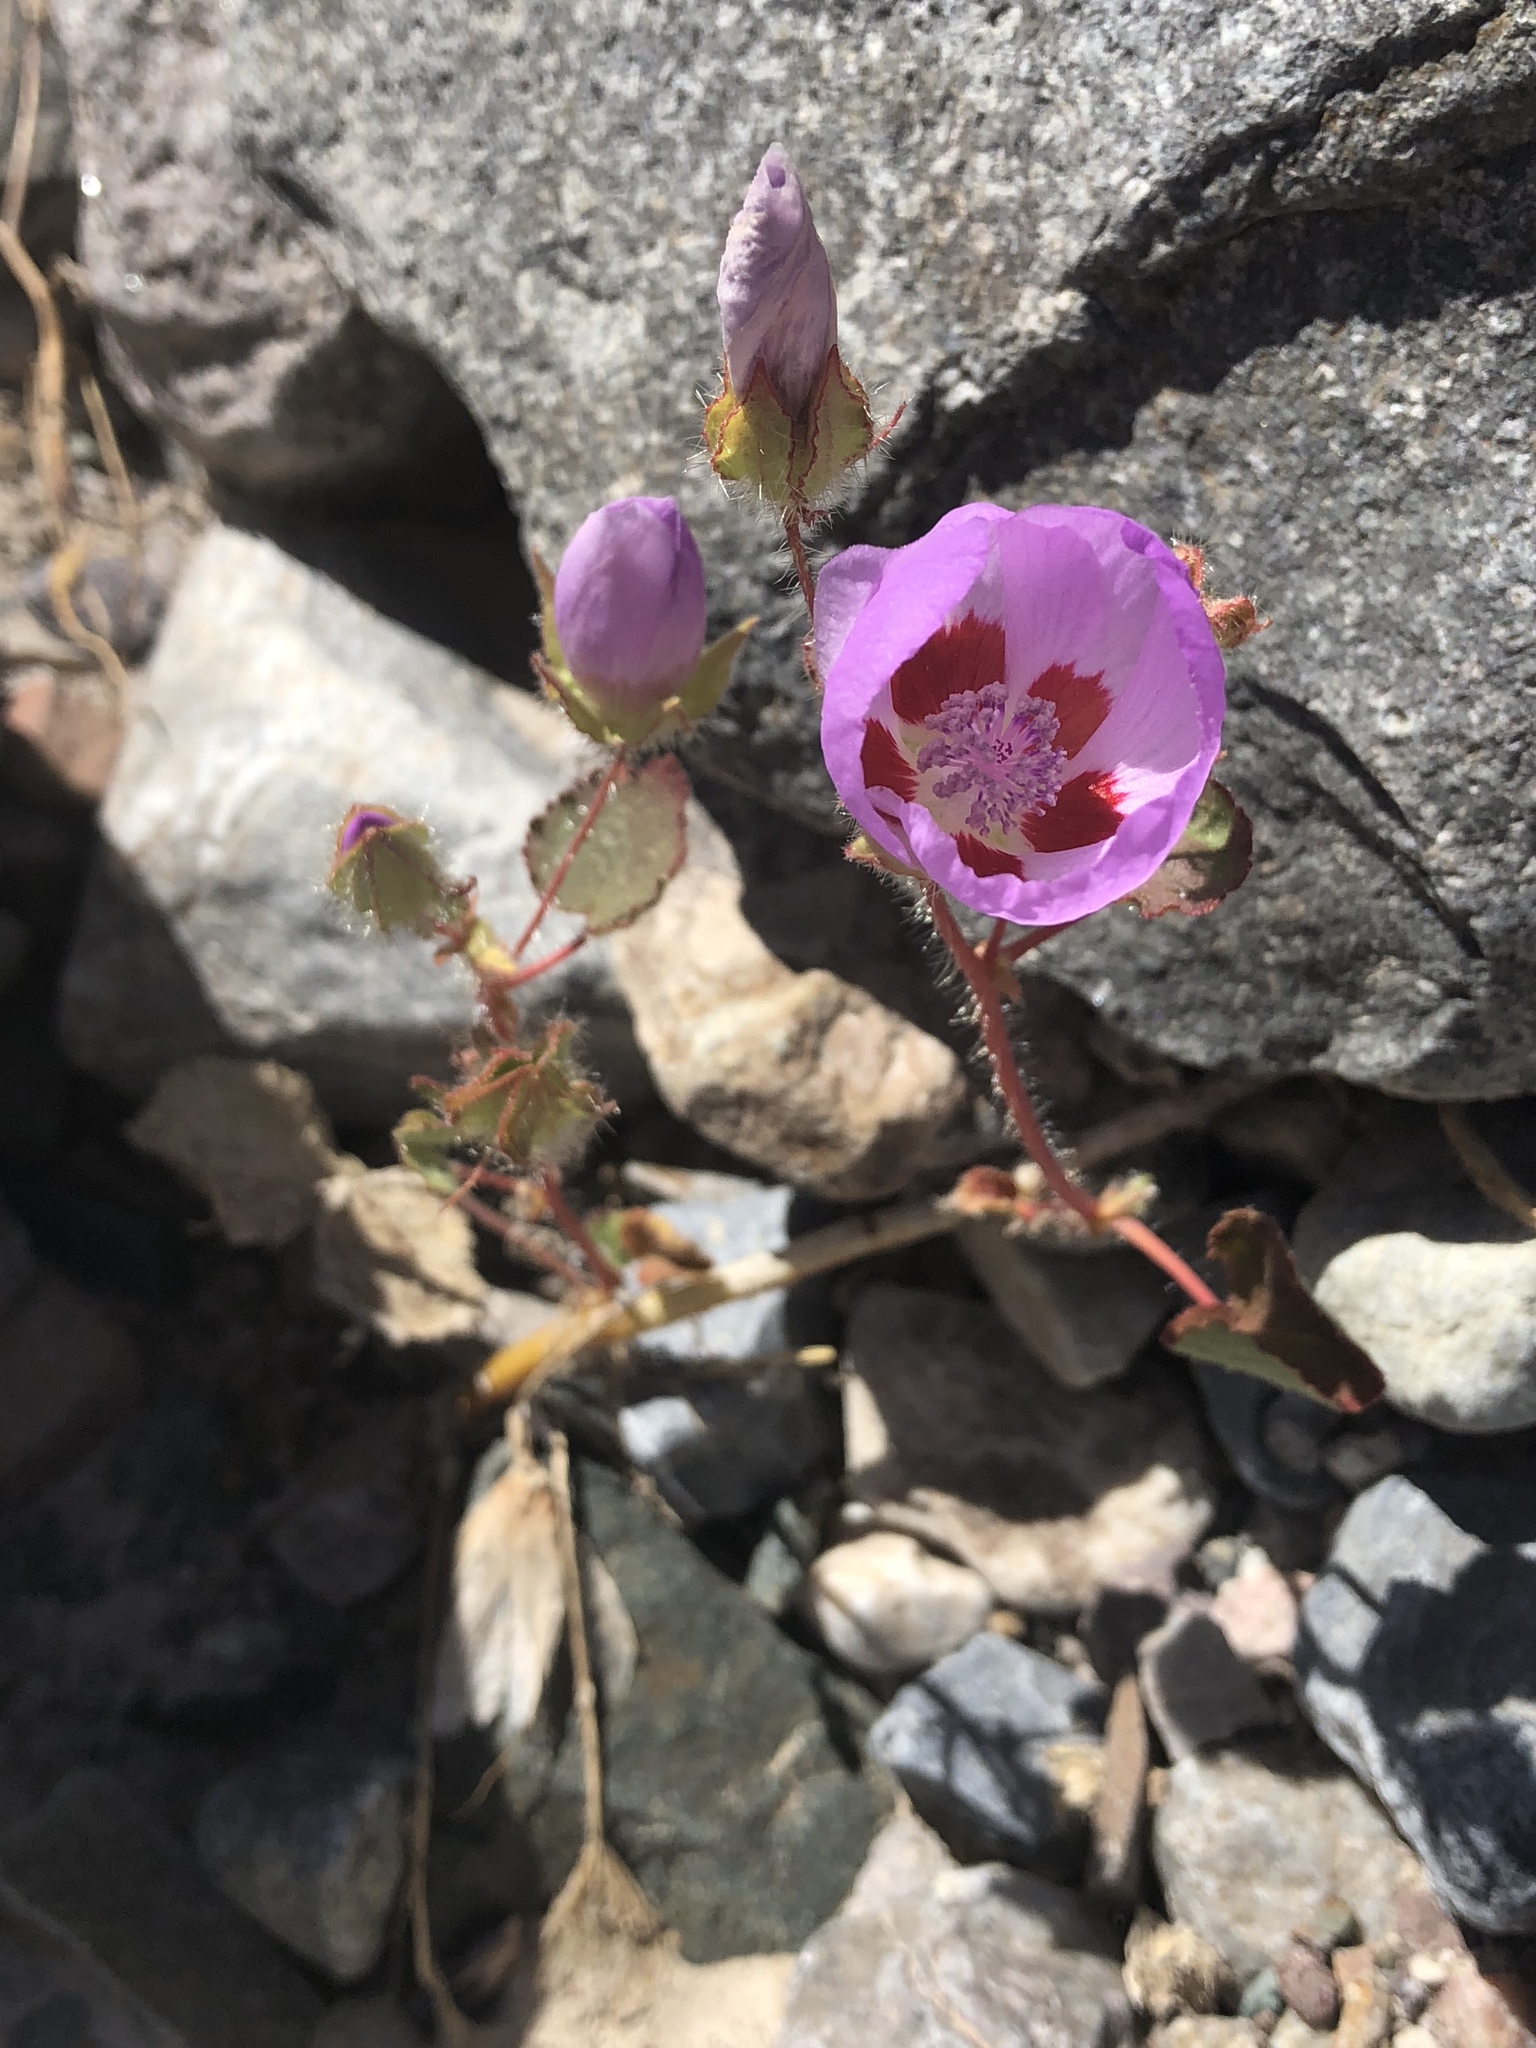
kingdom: Plantae
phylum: Tracheophyta
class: Magnoliopsida
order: Malvales
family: Malvaceae
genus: Eremalche
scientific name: Eremalche rotundifolia
